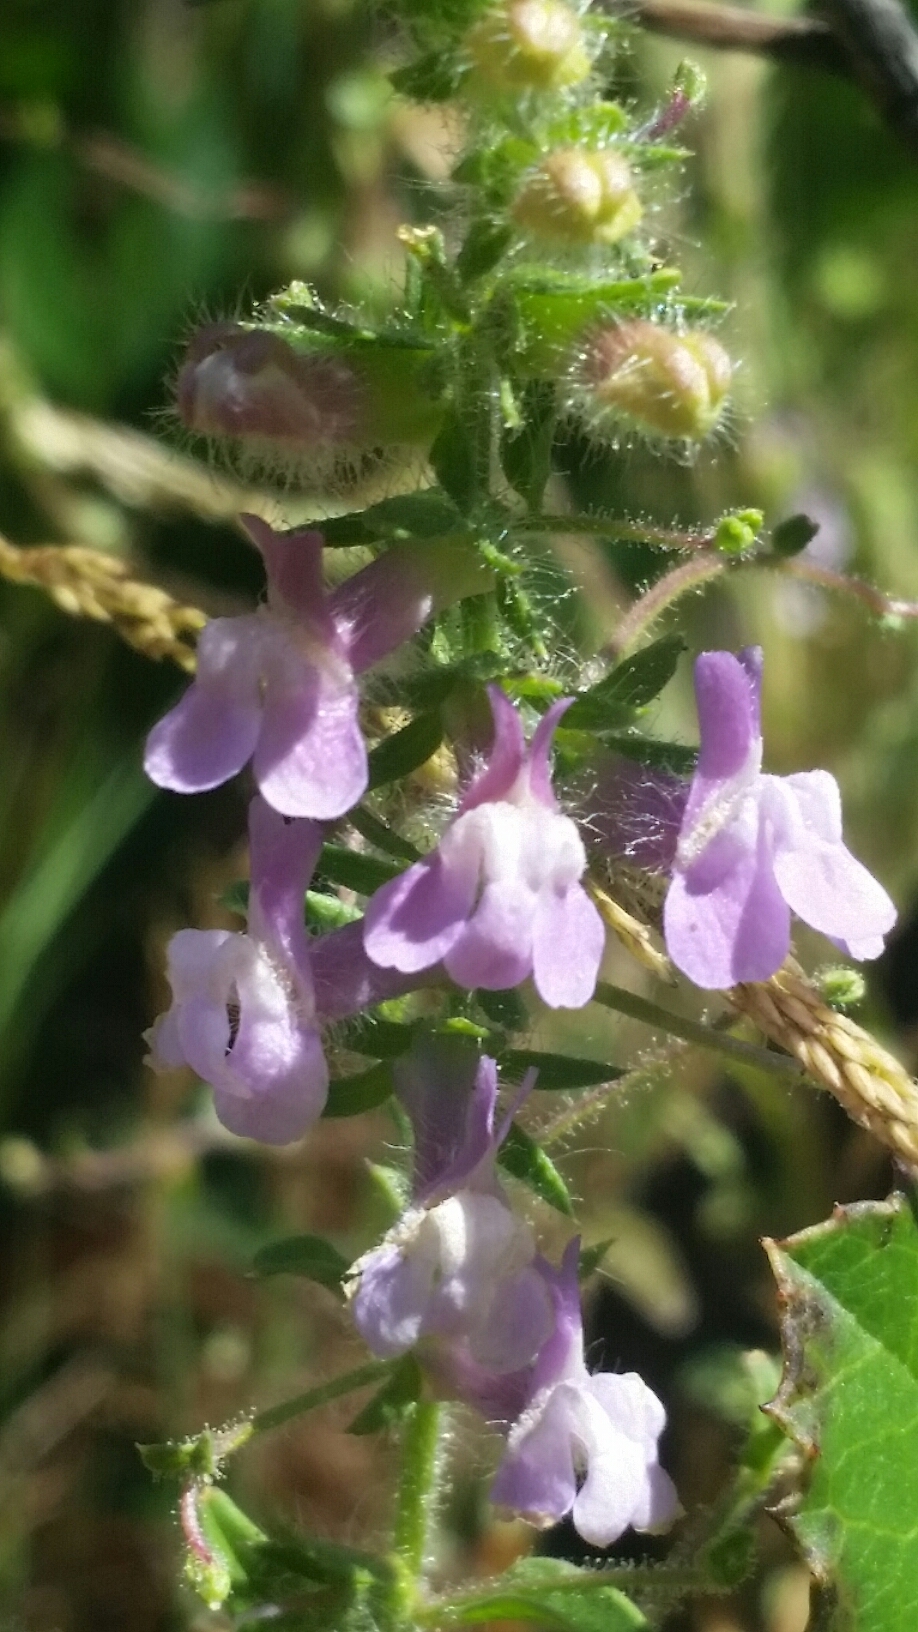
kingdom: Plantae
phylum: Tracheophyta
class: Magnoliopsida
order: Lamiales
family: Plantaginaceae
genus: Sairocarpus
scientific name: Sairocarpus vexillocalyculatus
